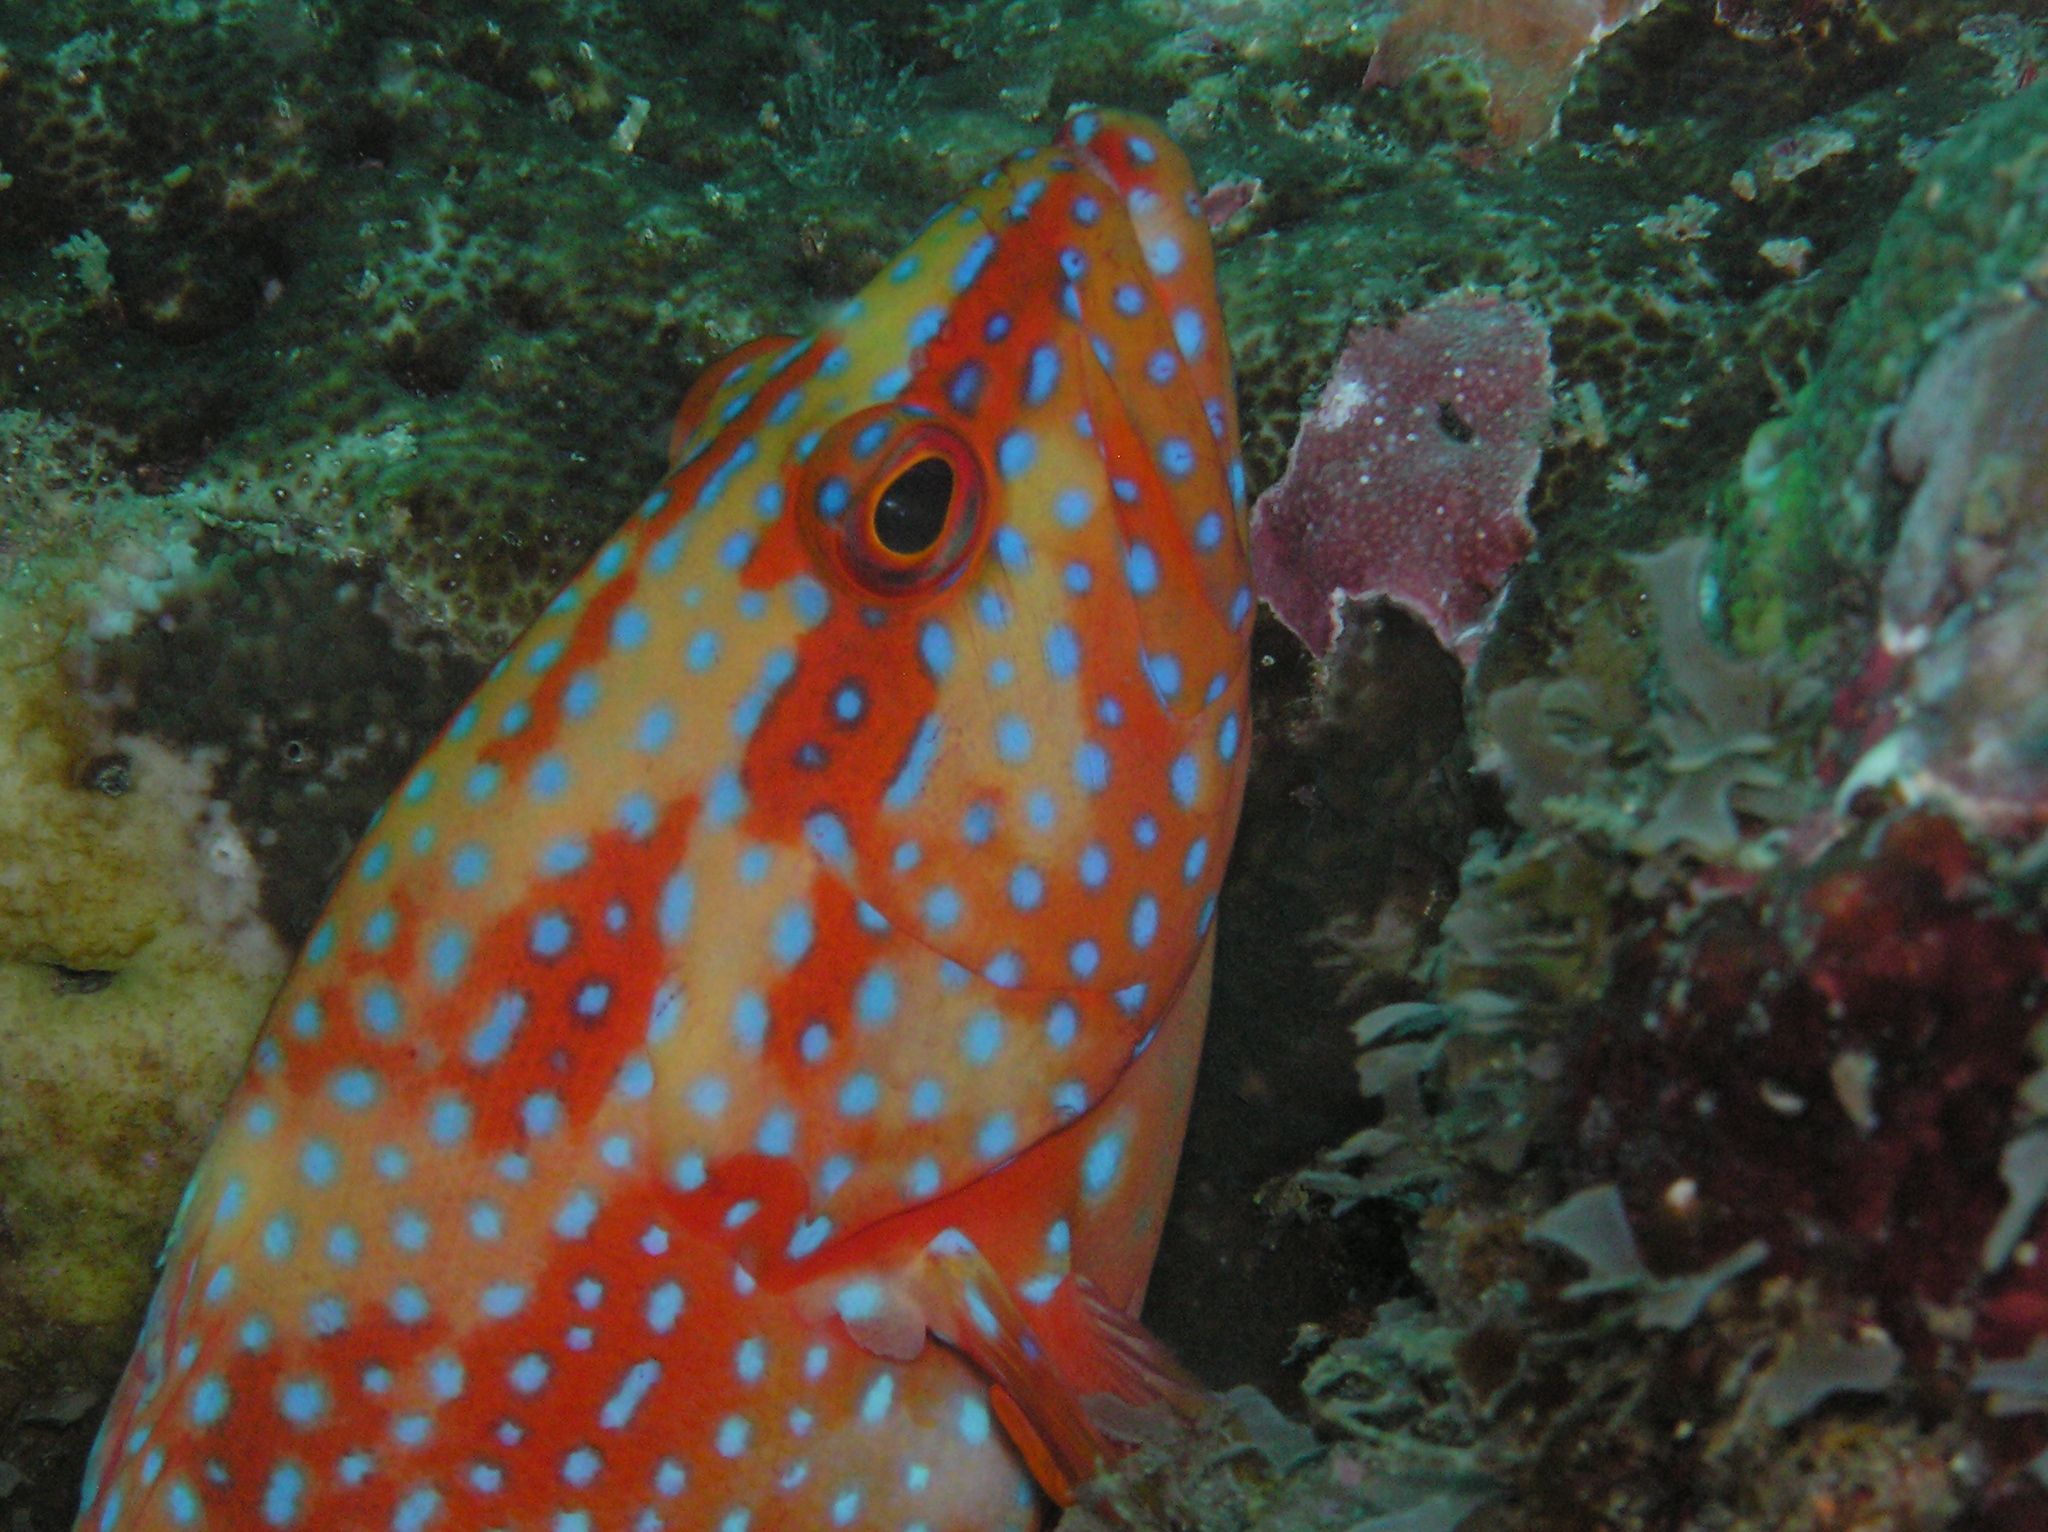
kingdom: Animalia
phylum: Chordata
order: Perciformes
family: Serranidae
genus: Cephalopholis
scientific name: Cephalopholis miniata
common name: Coral hind
